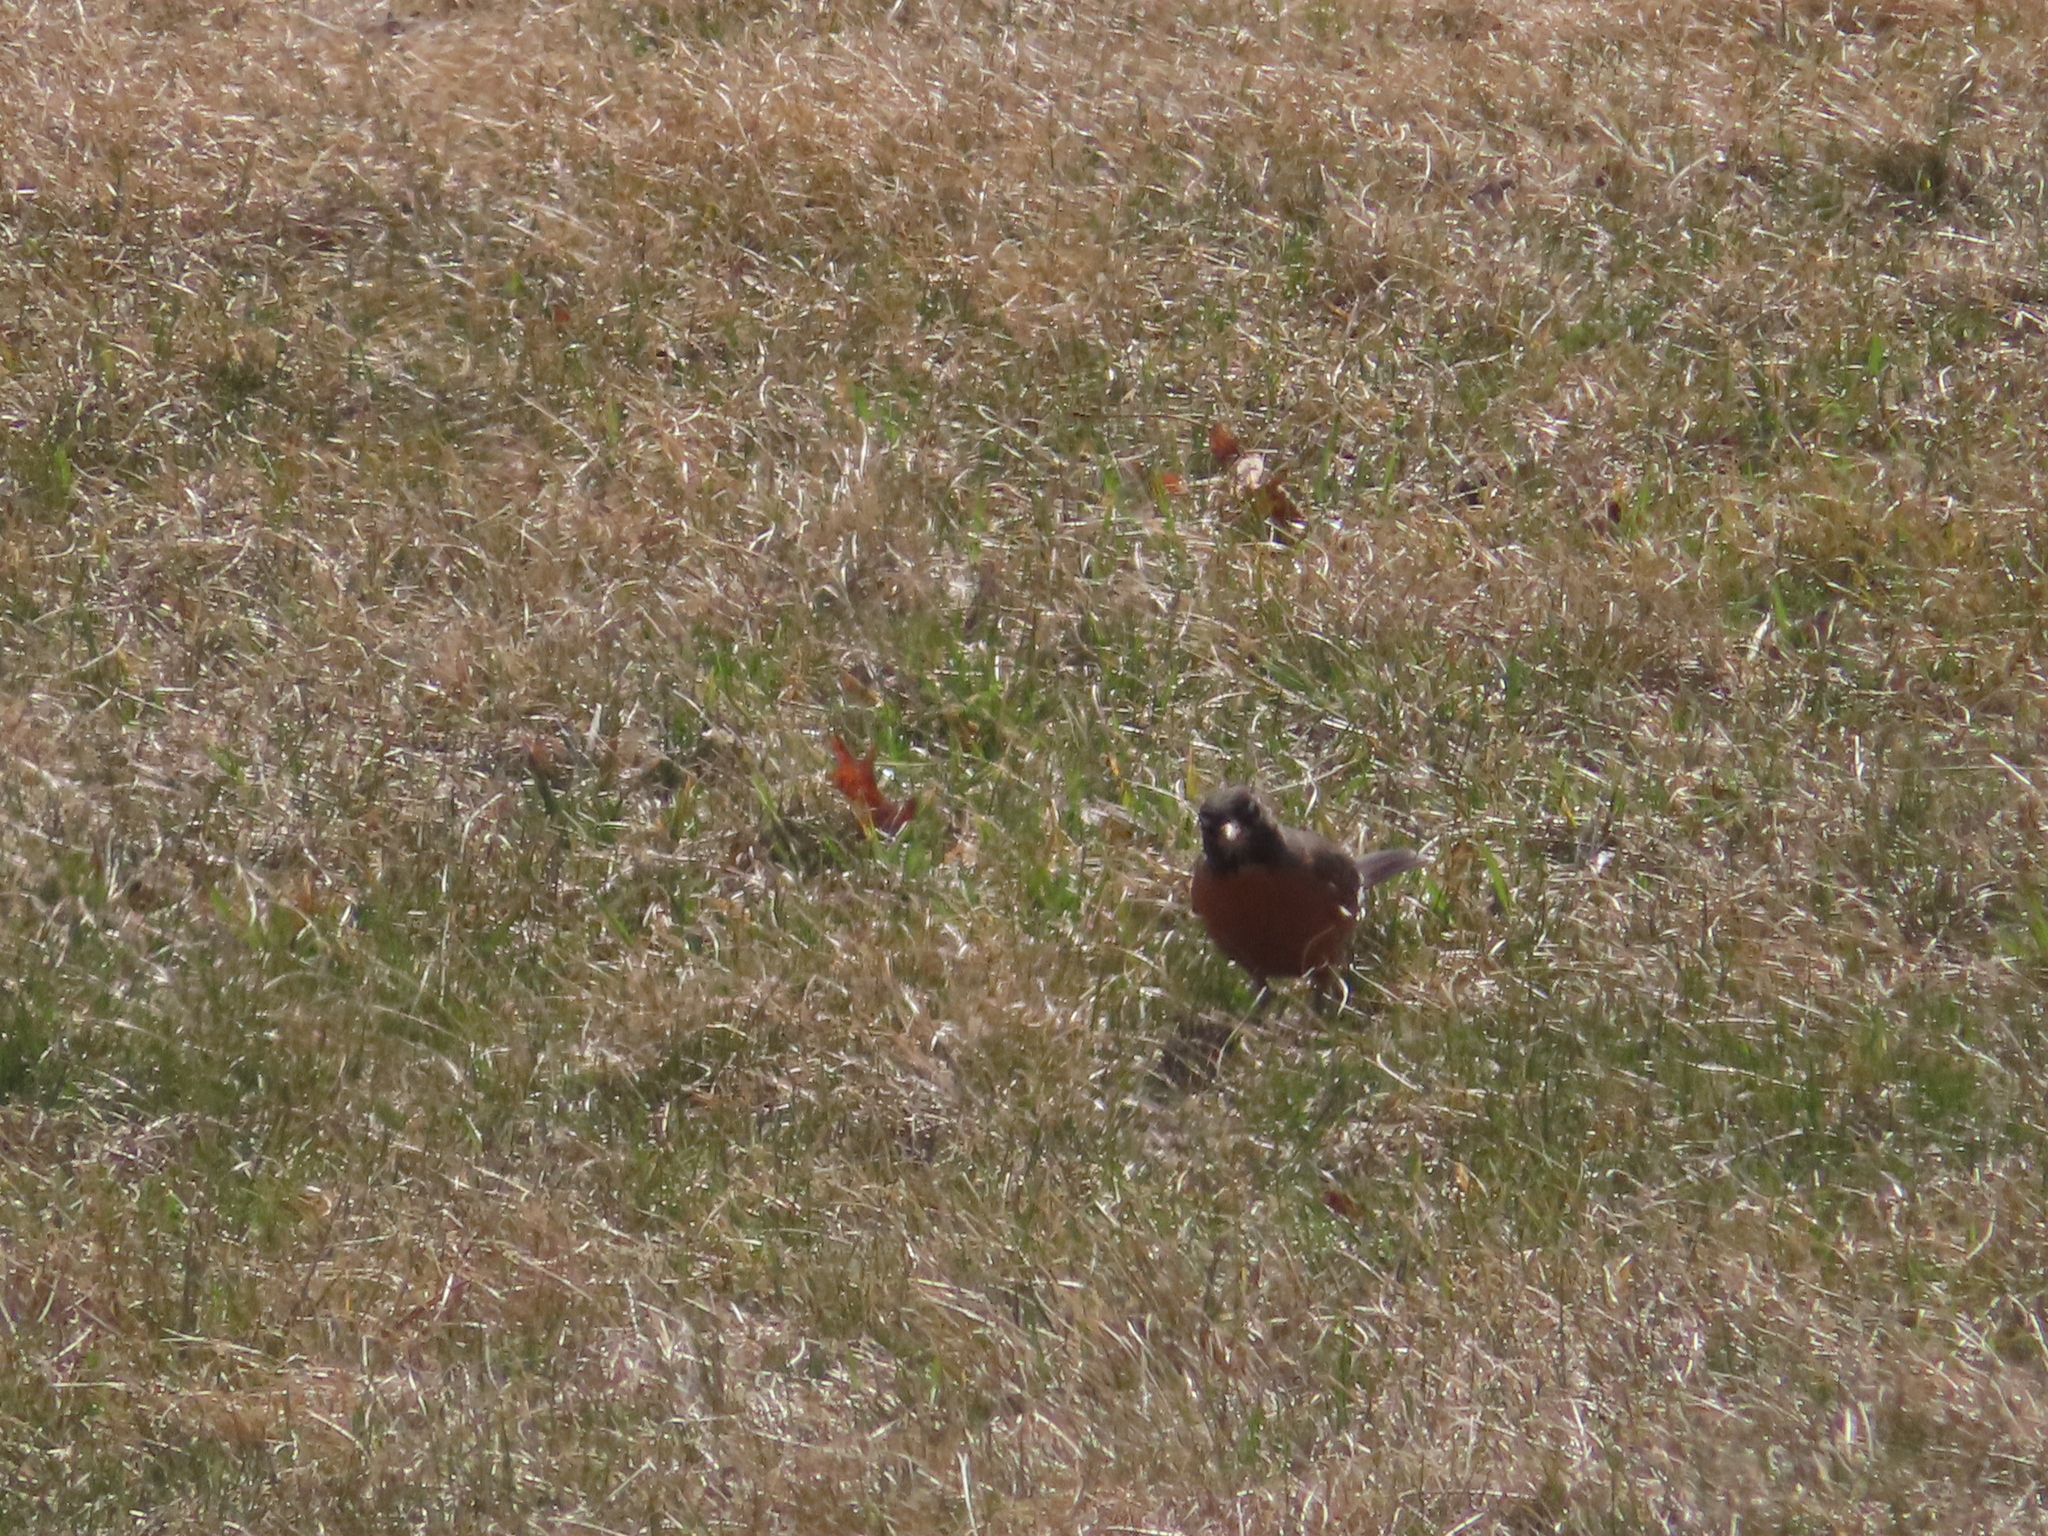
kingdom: Animalia
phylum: Chordata
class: Aves
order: Passeriformes
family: Turdidae
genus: Turdus
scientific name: Turdus migratorius
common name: American robin
